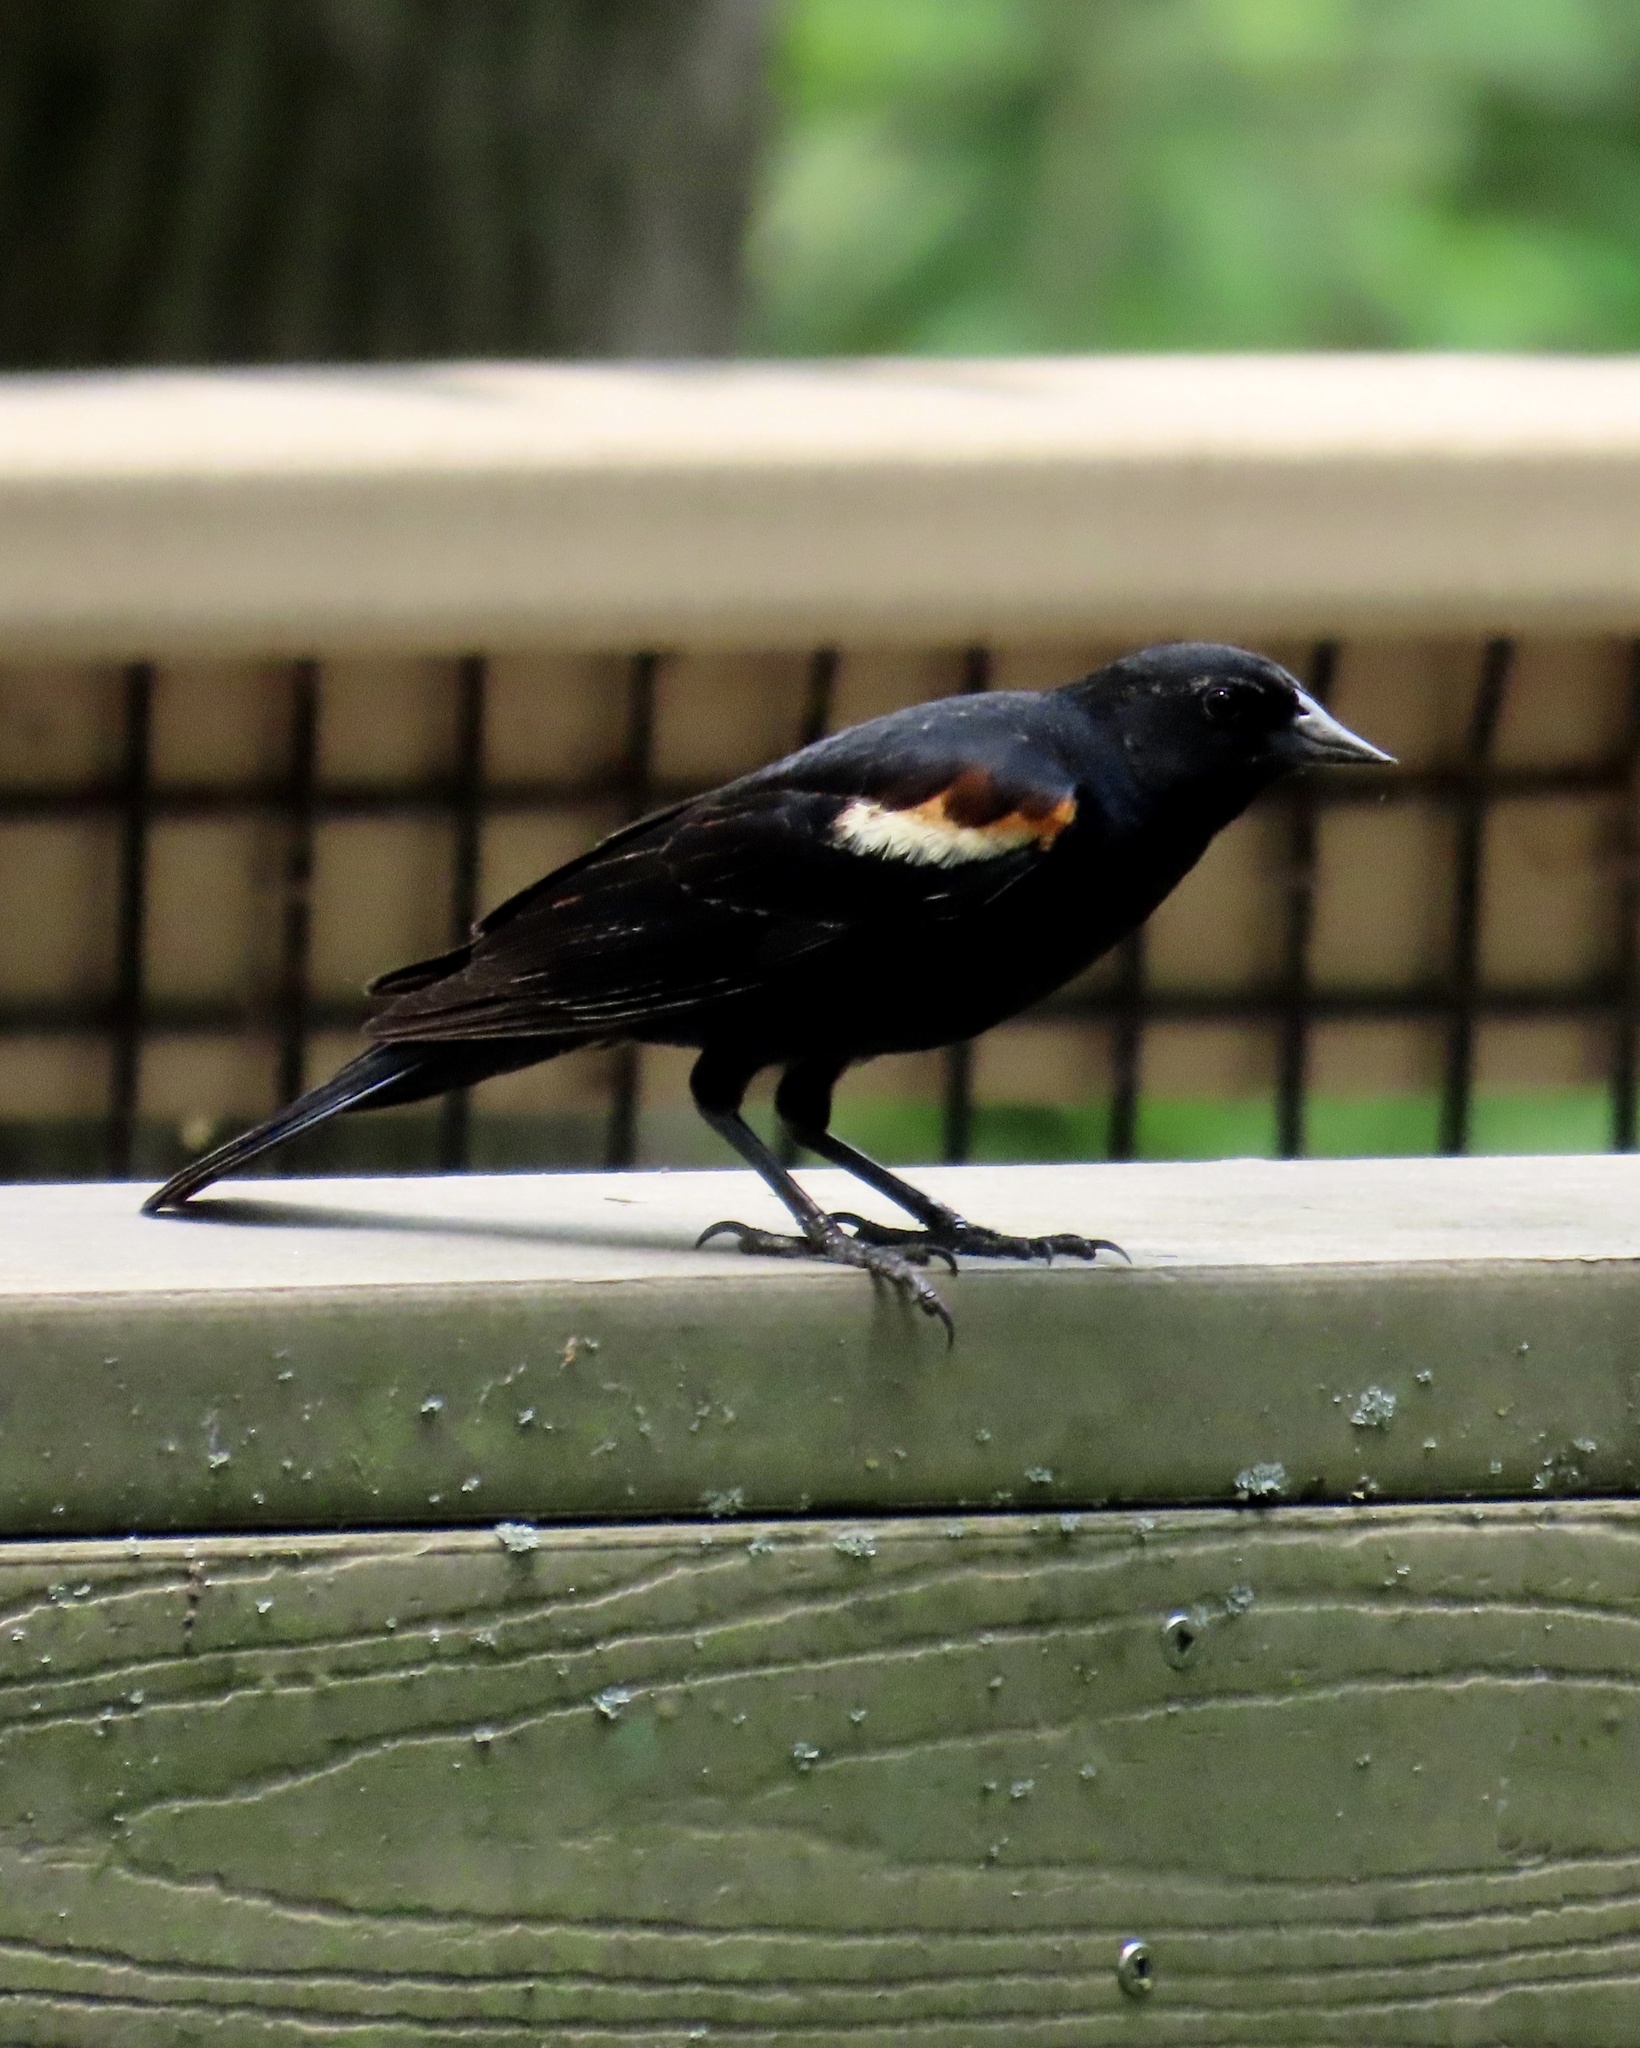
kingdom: Animalia
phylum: Chordata
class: Aves
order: Passeriformes
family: Icteridae
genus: Agelaius
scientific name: Agelaius phoeniceus
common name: Red-winged blackbird
